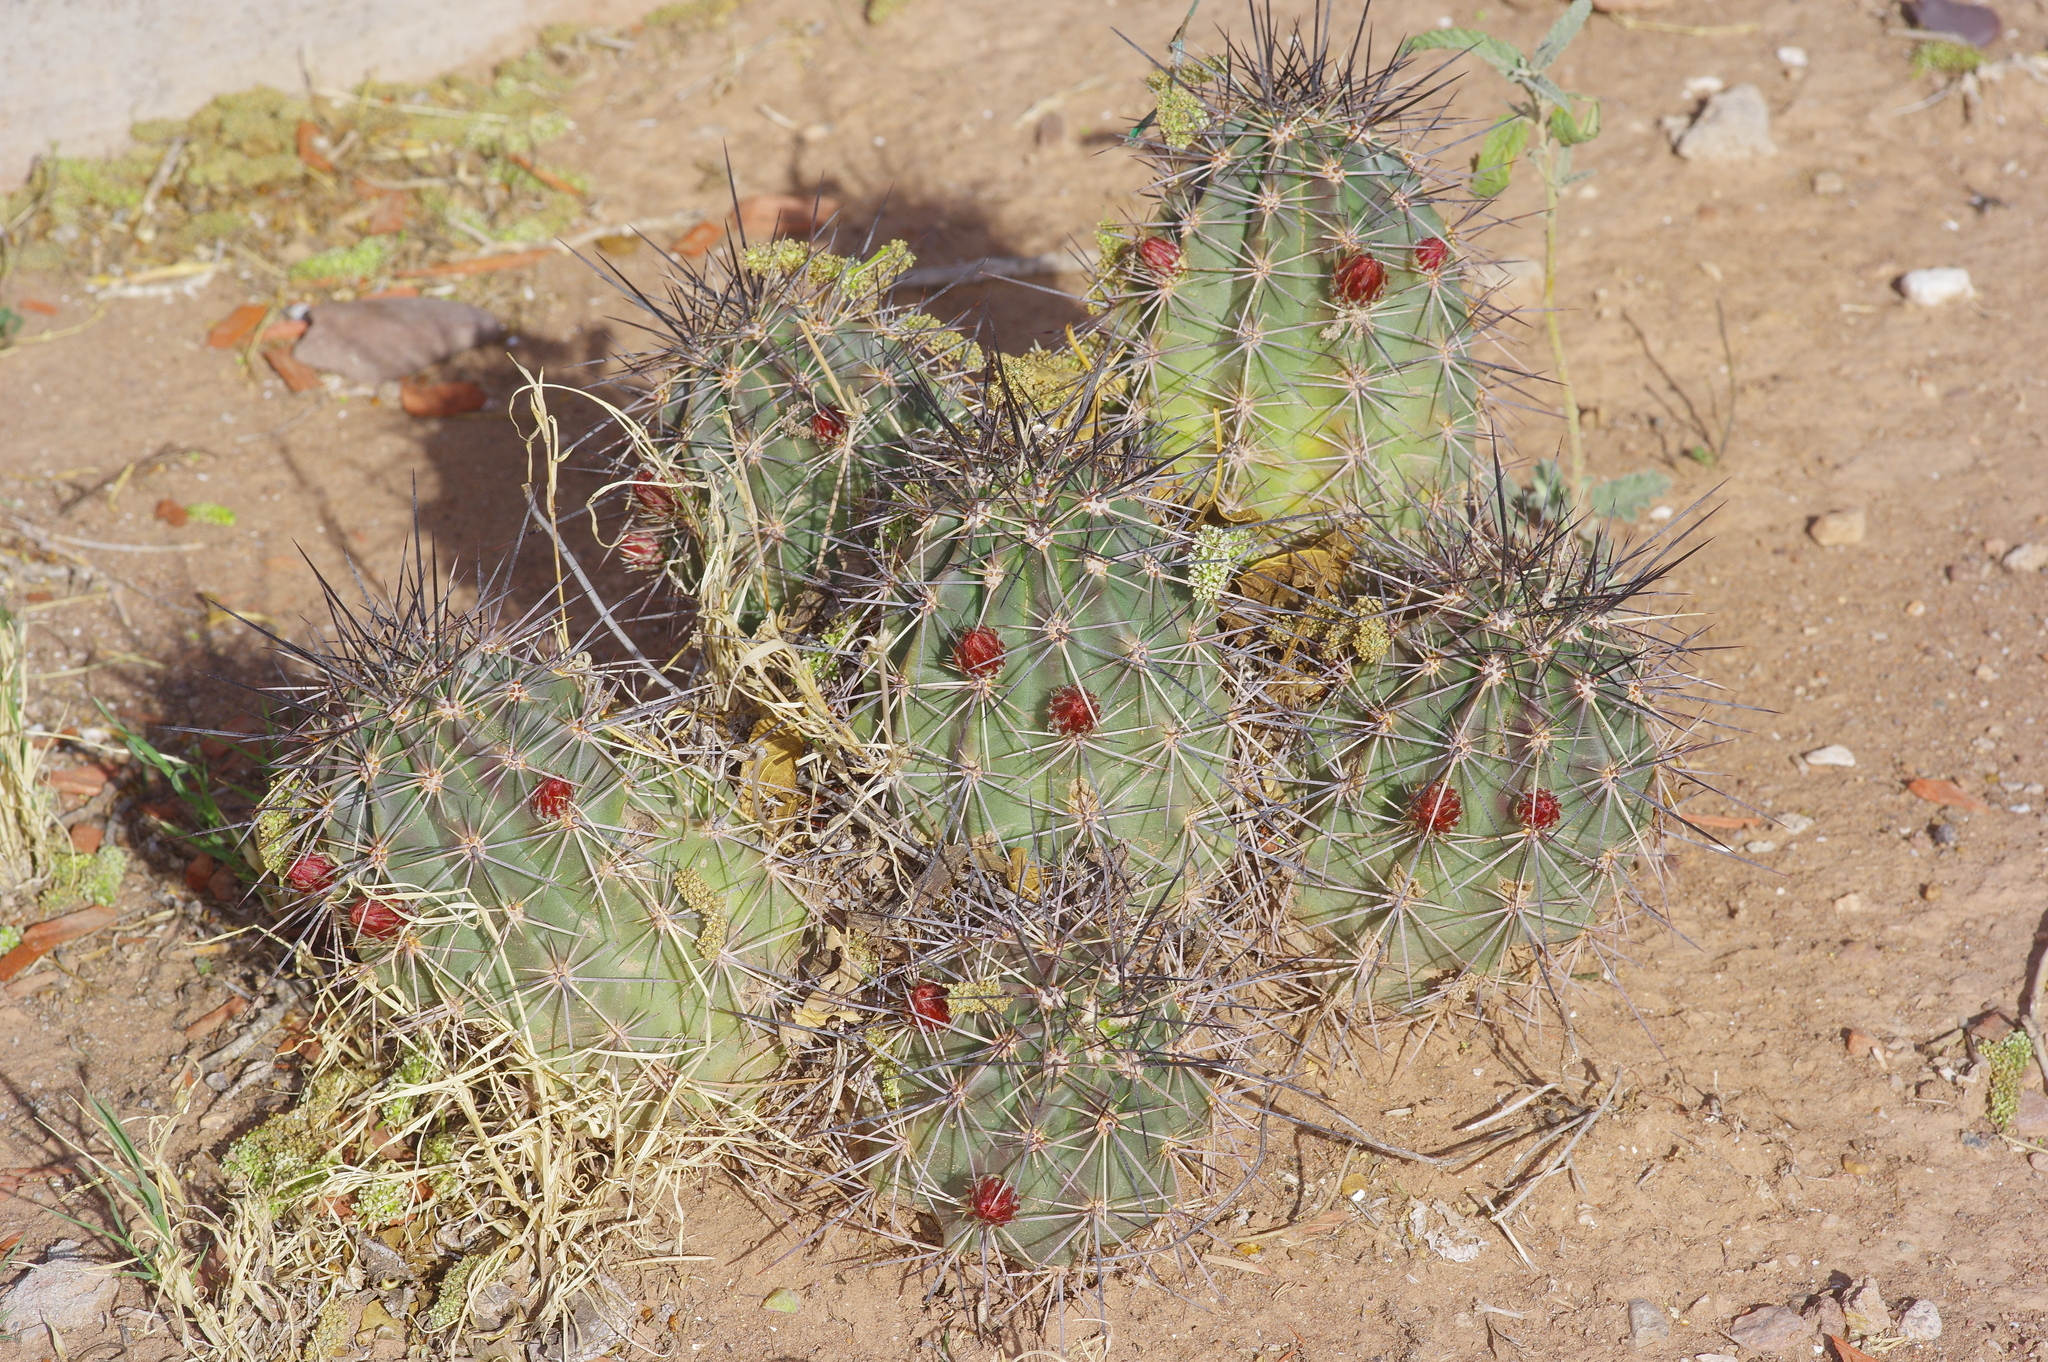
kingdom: Plantae
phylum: Tracheophyta
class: Magnoliopsida
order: Caryophyllales
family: Cactaceae
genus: Echinocereus
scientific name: Echinocereus coccineus
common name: Scarlet hedgehog cactus
